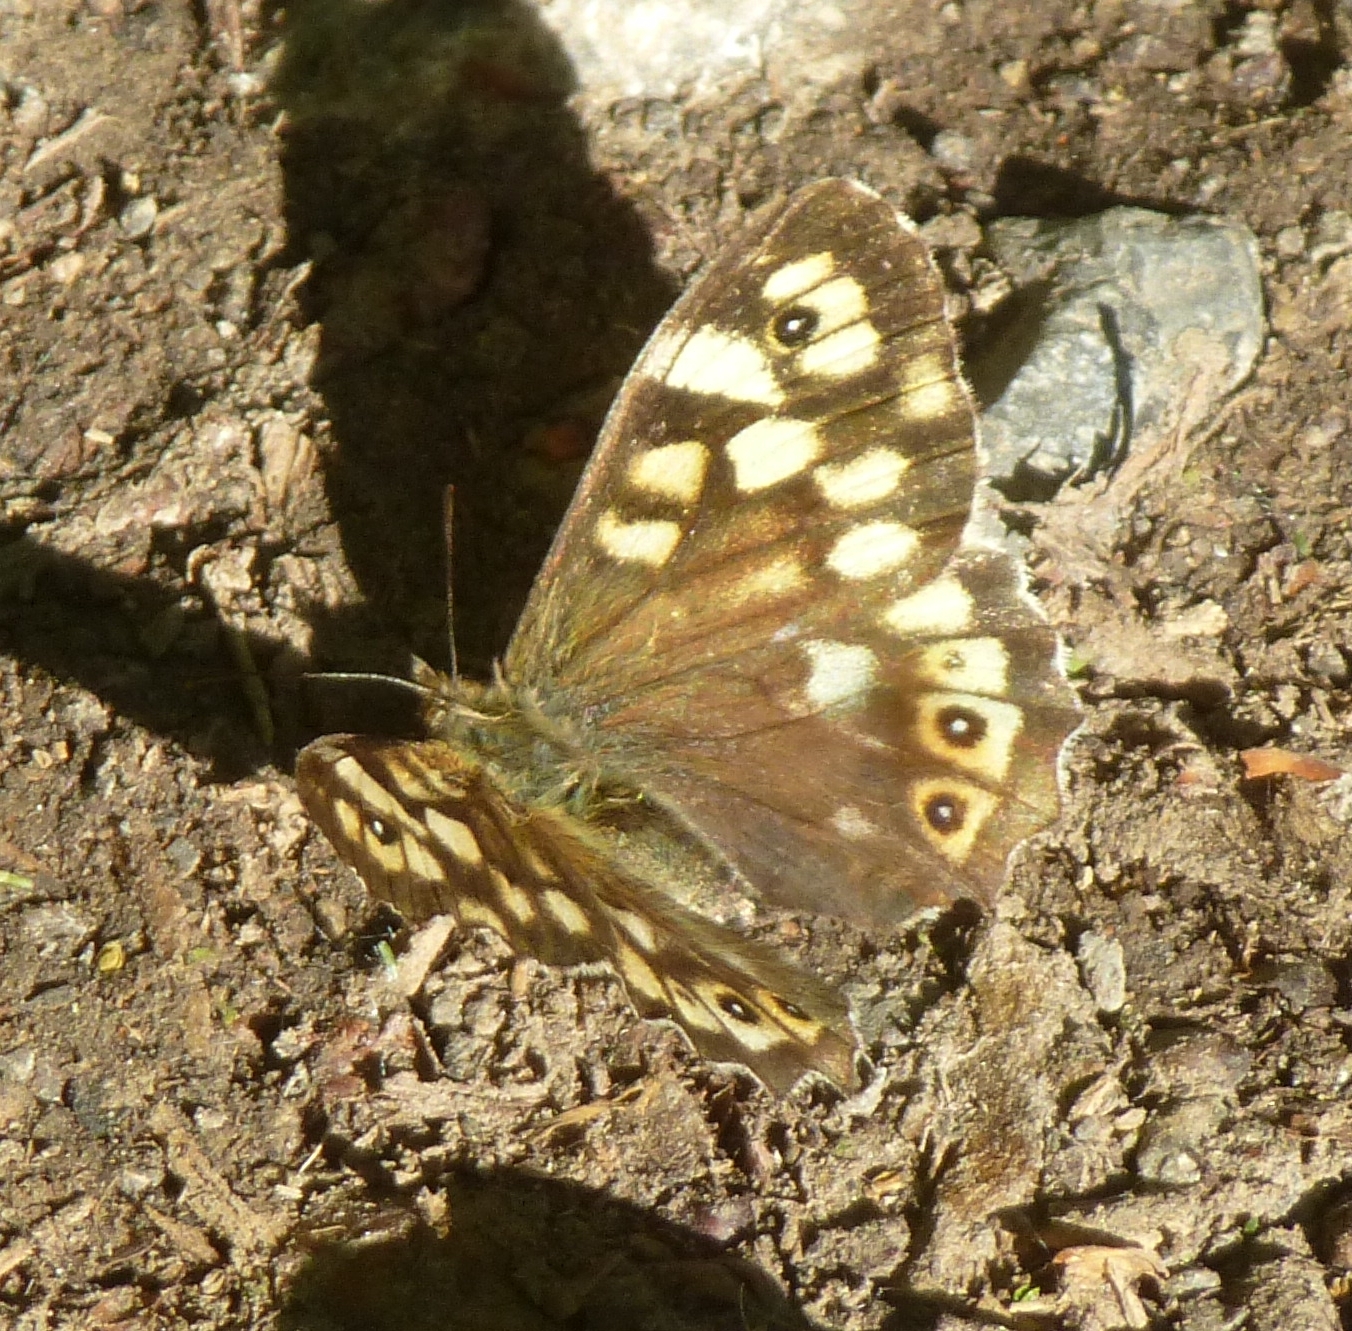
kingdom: Animalia
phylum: Arthropoda
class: Insecta
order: Lepidoptera
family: Nymphalidae
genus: Pararge
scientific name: Pararge aegeria
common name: Speckled wood
